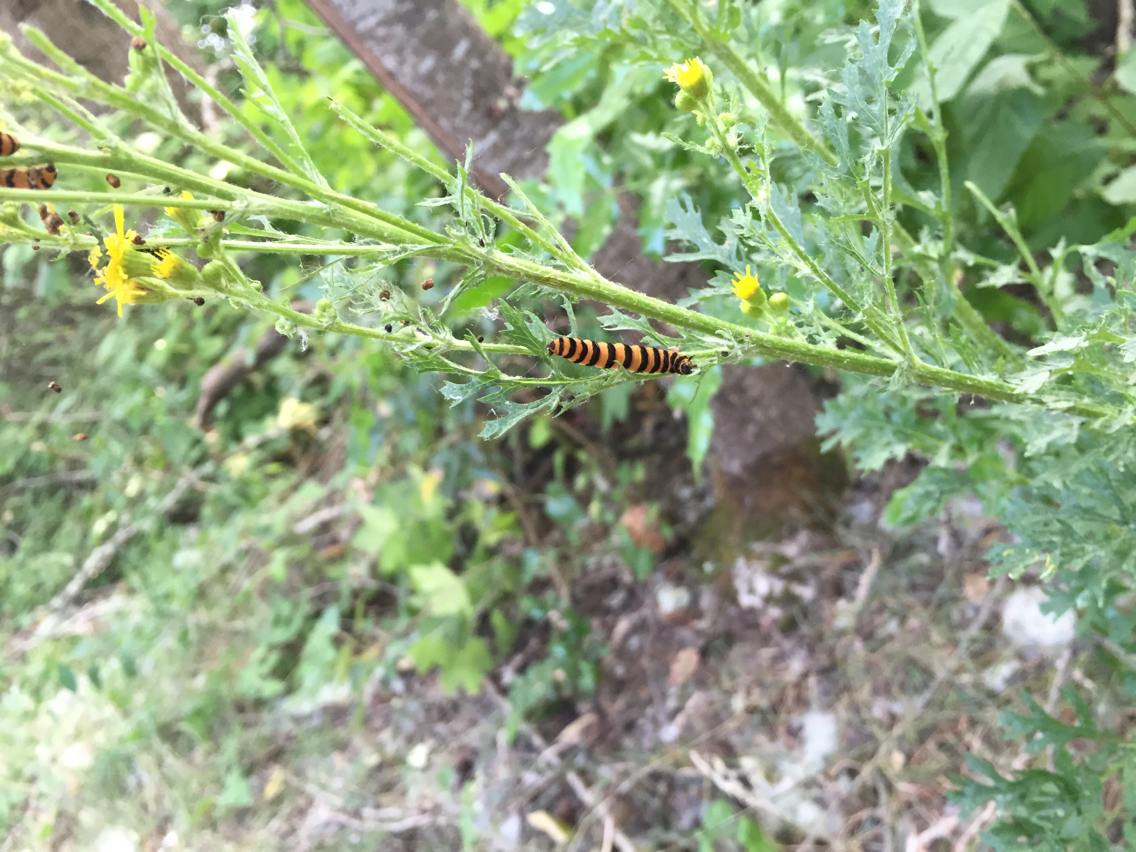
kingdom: Animalia
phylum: Arthropoda
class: Insecta
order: Lepidoptera
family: Erebidae
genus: Tyria
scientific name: Tyria jacobaeae
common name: Cinnabar
